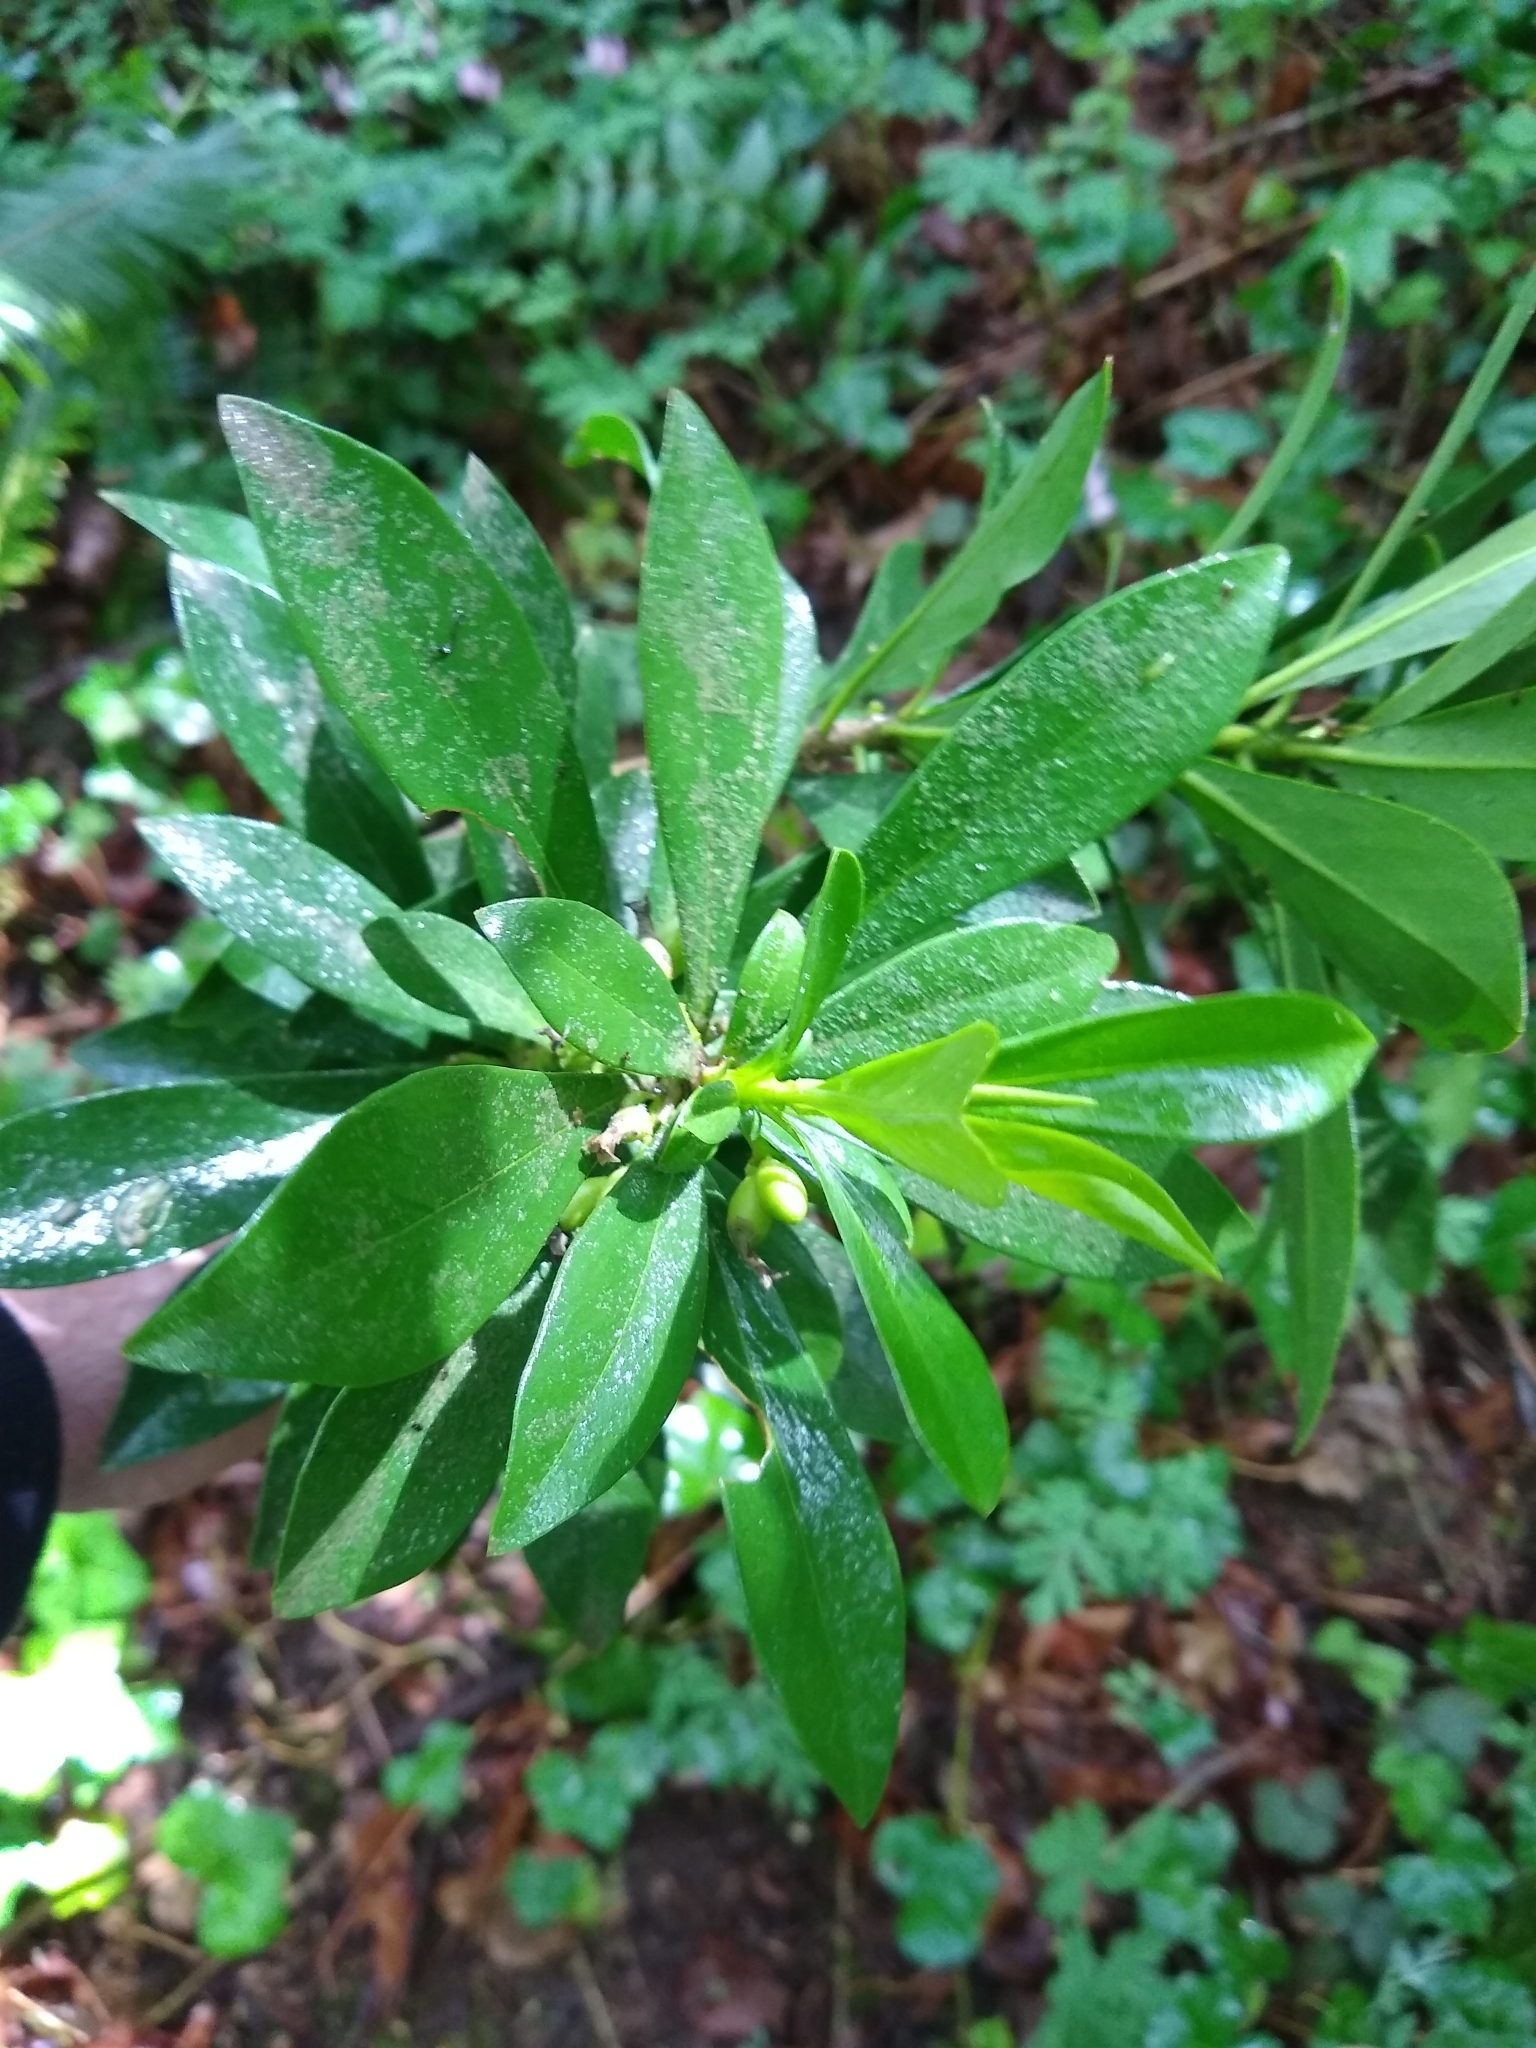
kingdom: Plantae
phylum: Tracheophyta
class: Magnoliopsida
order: Malvales
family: Thymelaeaceae
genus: Daphne
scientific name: Daphne laureola
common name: Spurge-laurel
